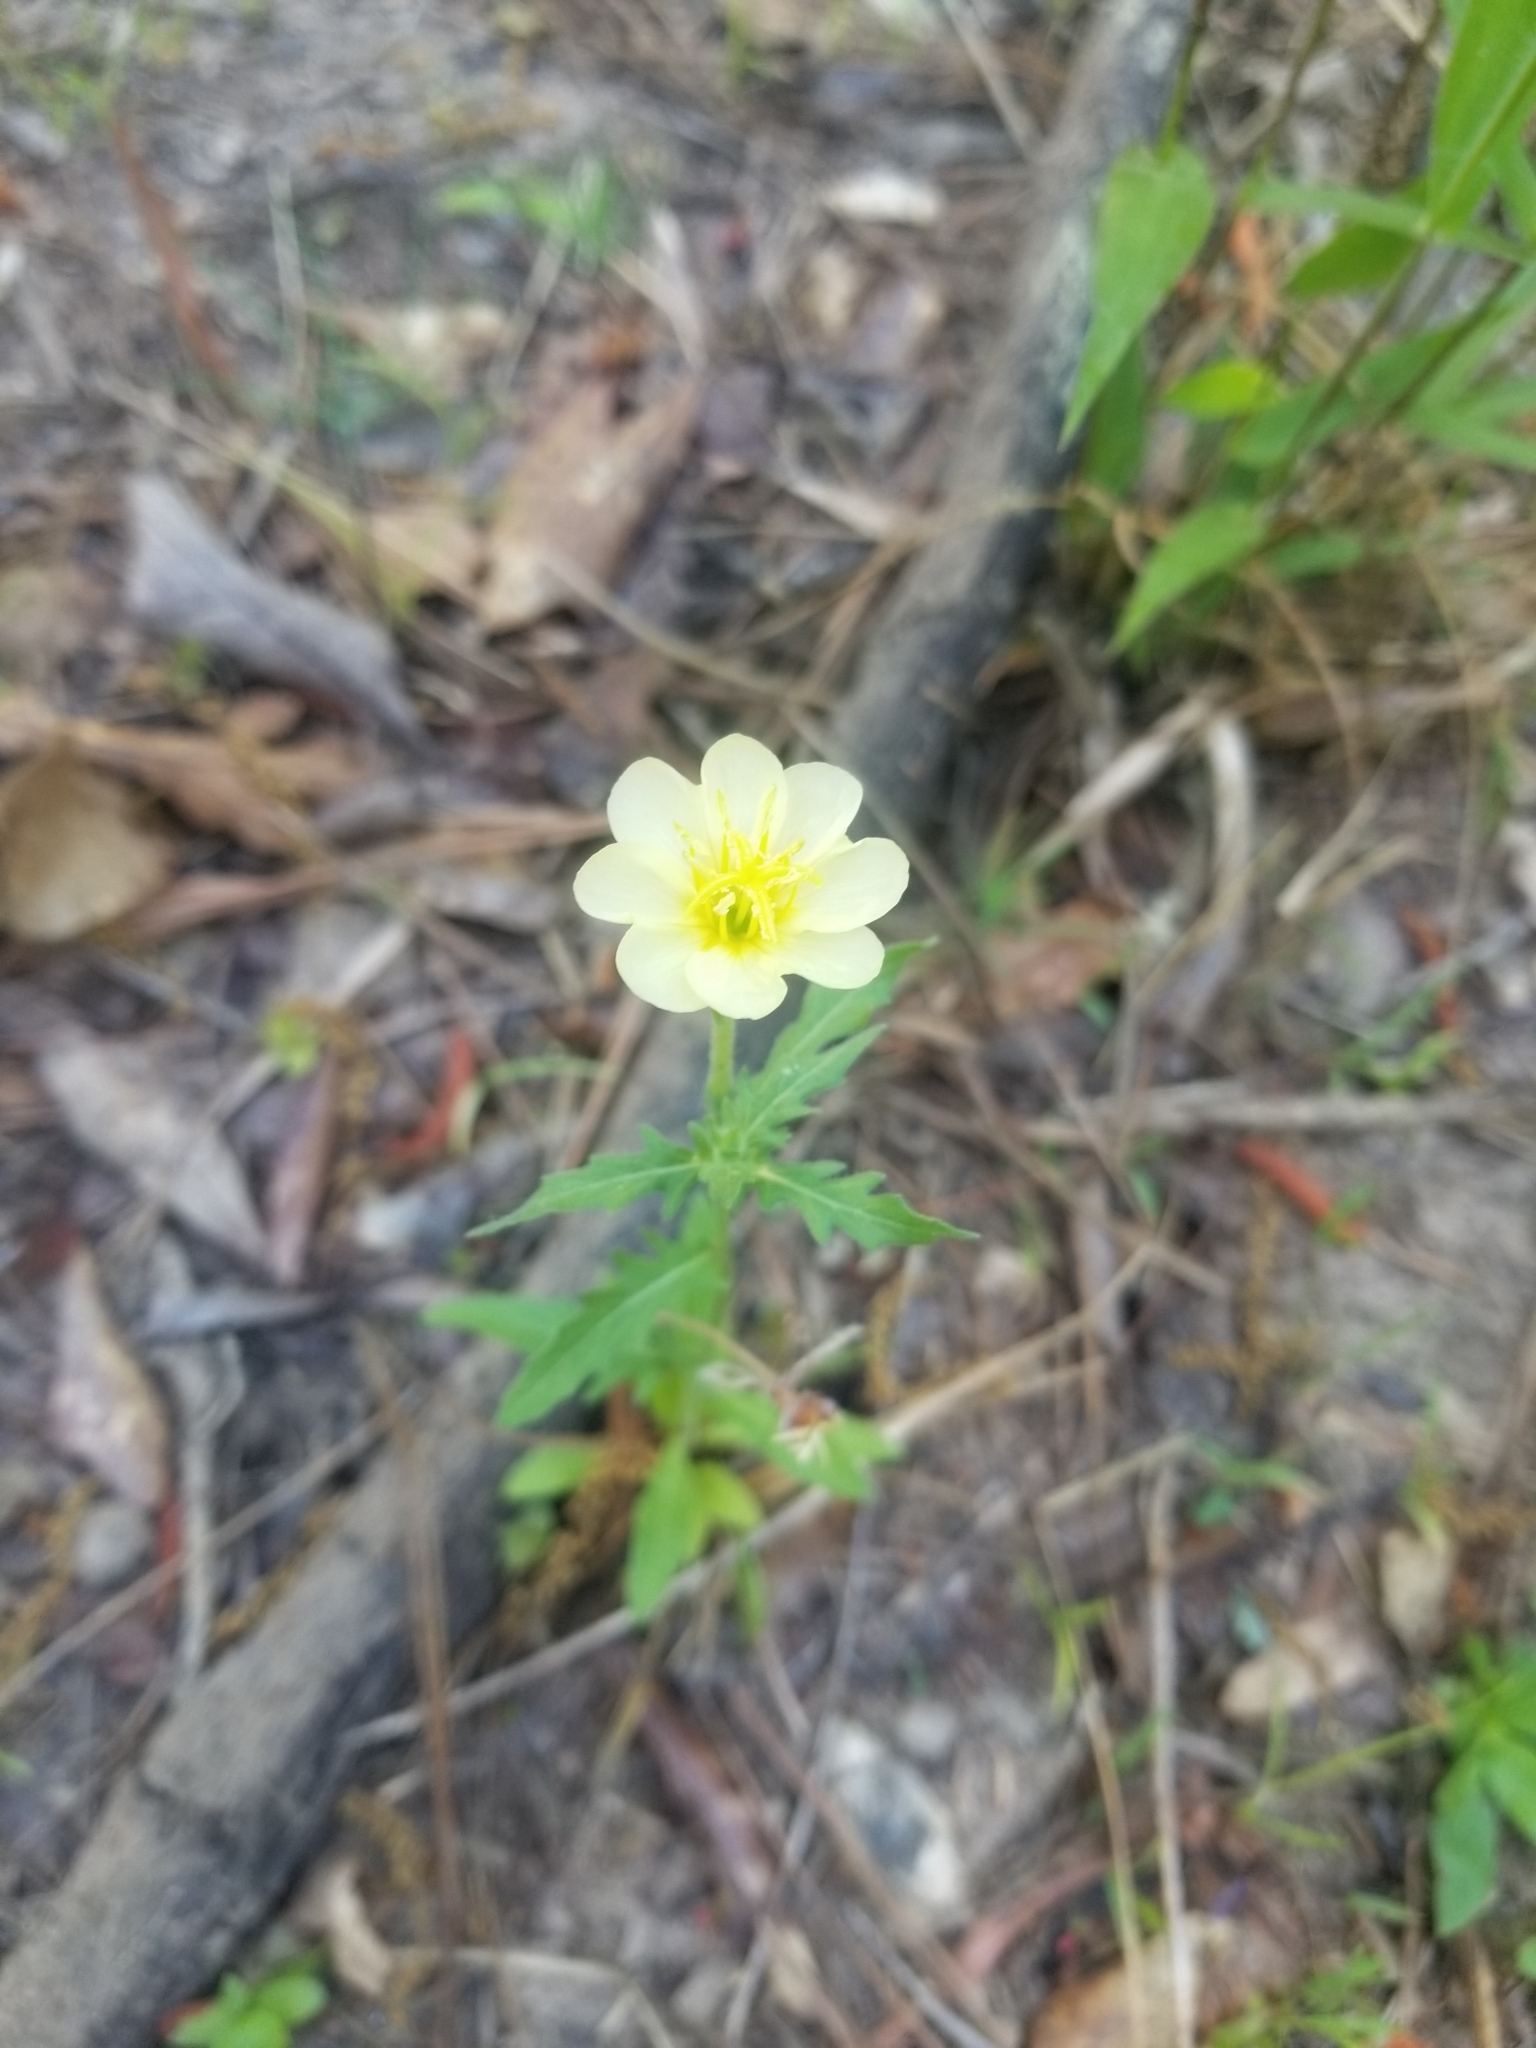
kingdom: Plantae
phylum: Tracheophyta
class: Magnoliopsida
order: Myrtales
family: Onagraceae
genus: Oenothera
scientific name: Oenothera laciniata
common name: Cut-leaved evening-primrose
